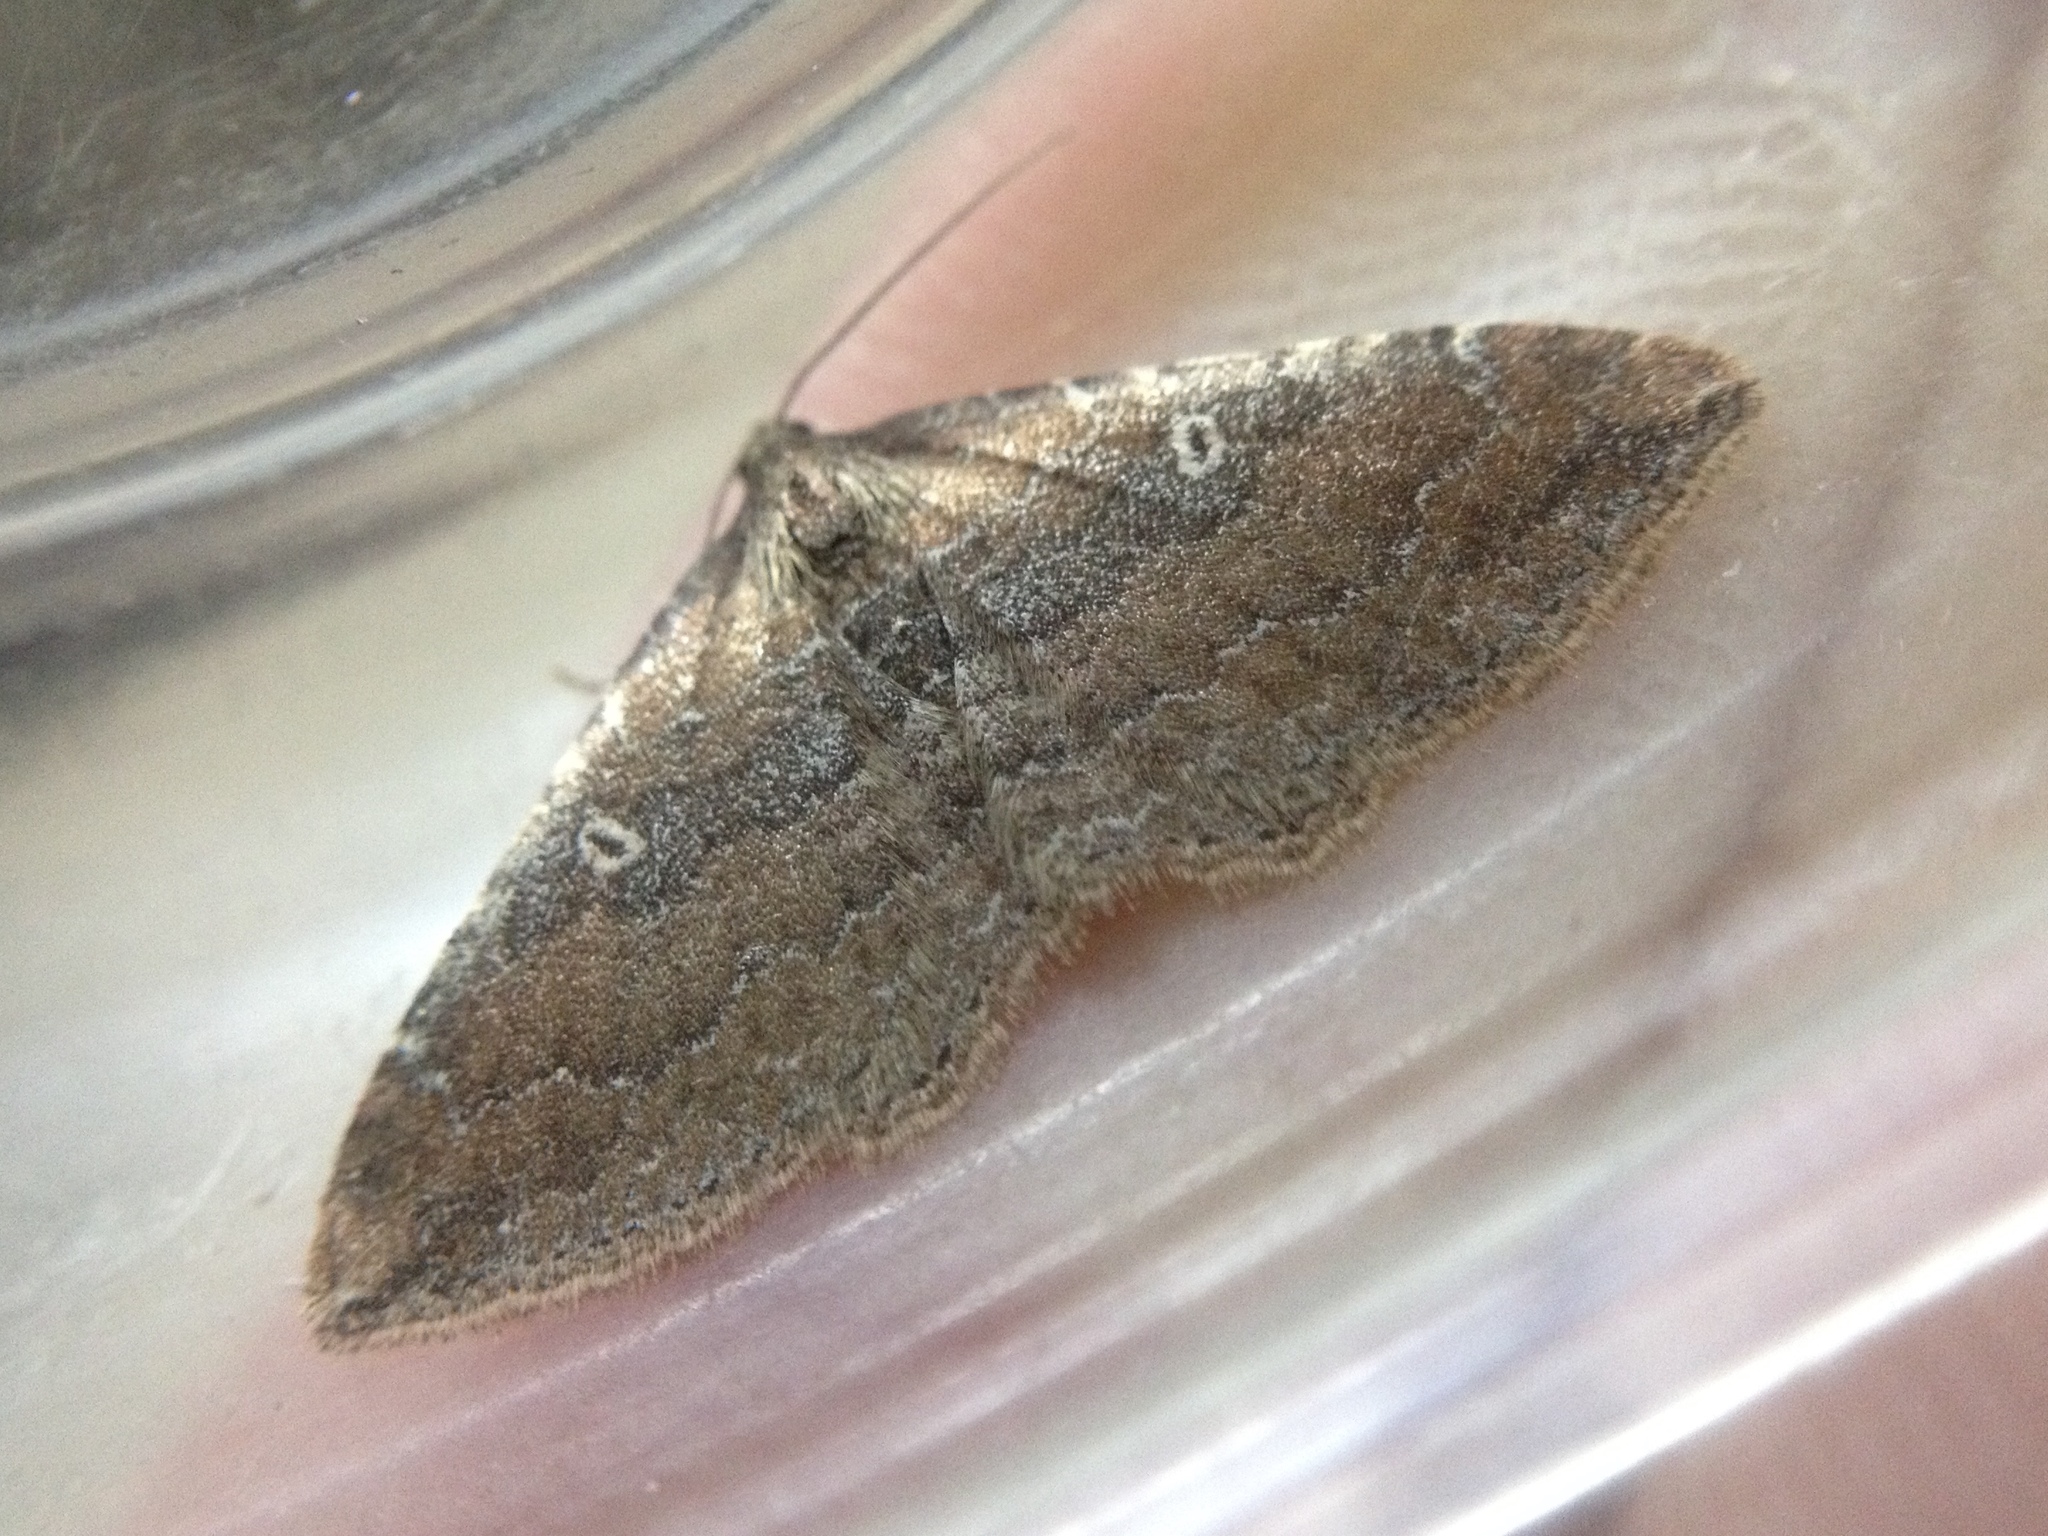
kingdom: Animalia
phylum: Arthropoda
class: Insecta
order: Lepidoptera
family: Geometridae
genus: Orthonama
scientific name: Orthonama obstipata
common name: The gem
